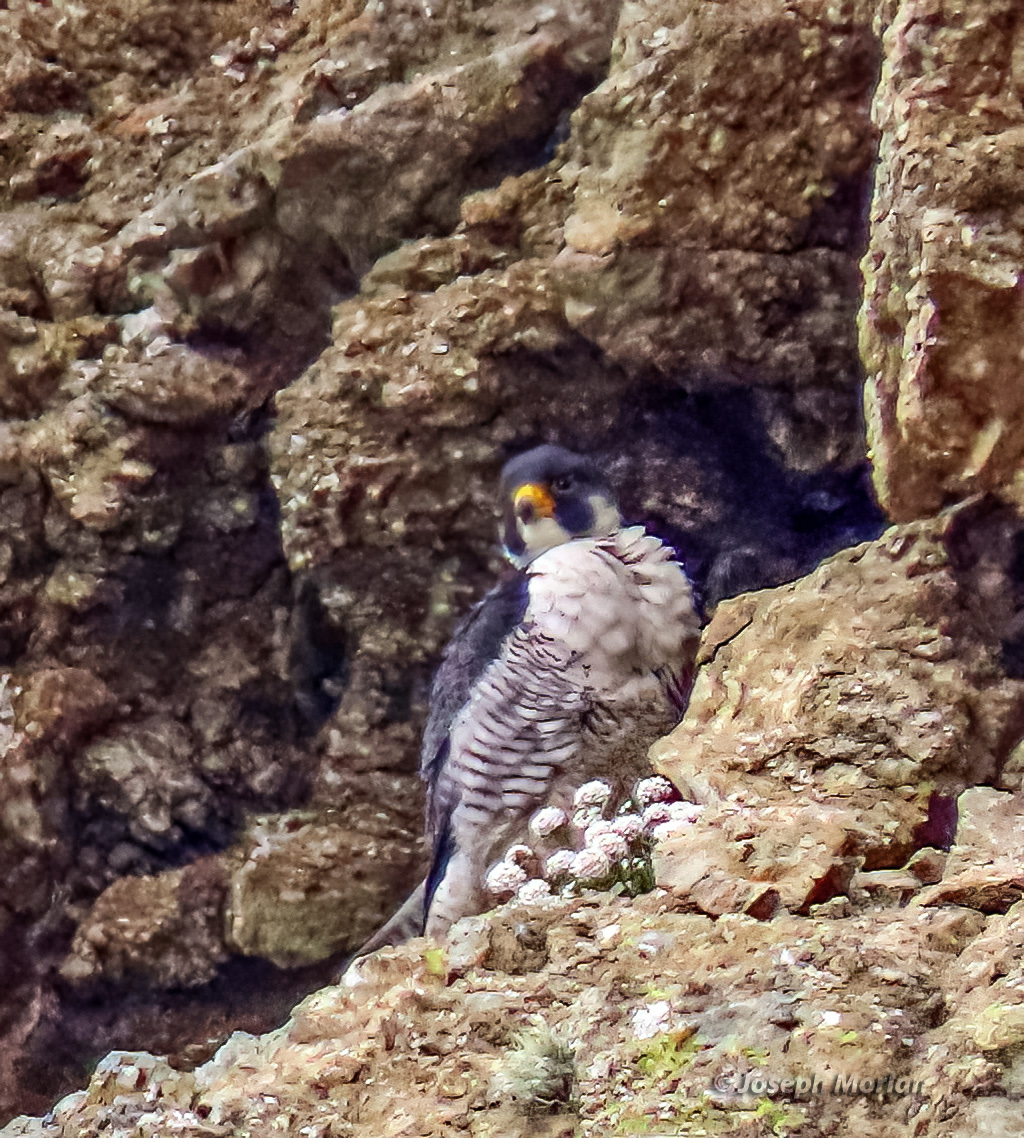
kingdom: Animalia
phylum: Chordata
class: Aves
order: Falconiformes
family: Falconidae
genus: Falco
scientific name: Falco peregrinus
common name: Peregrine falcon
